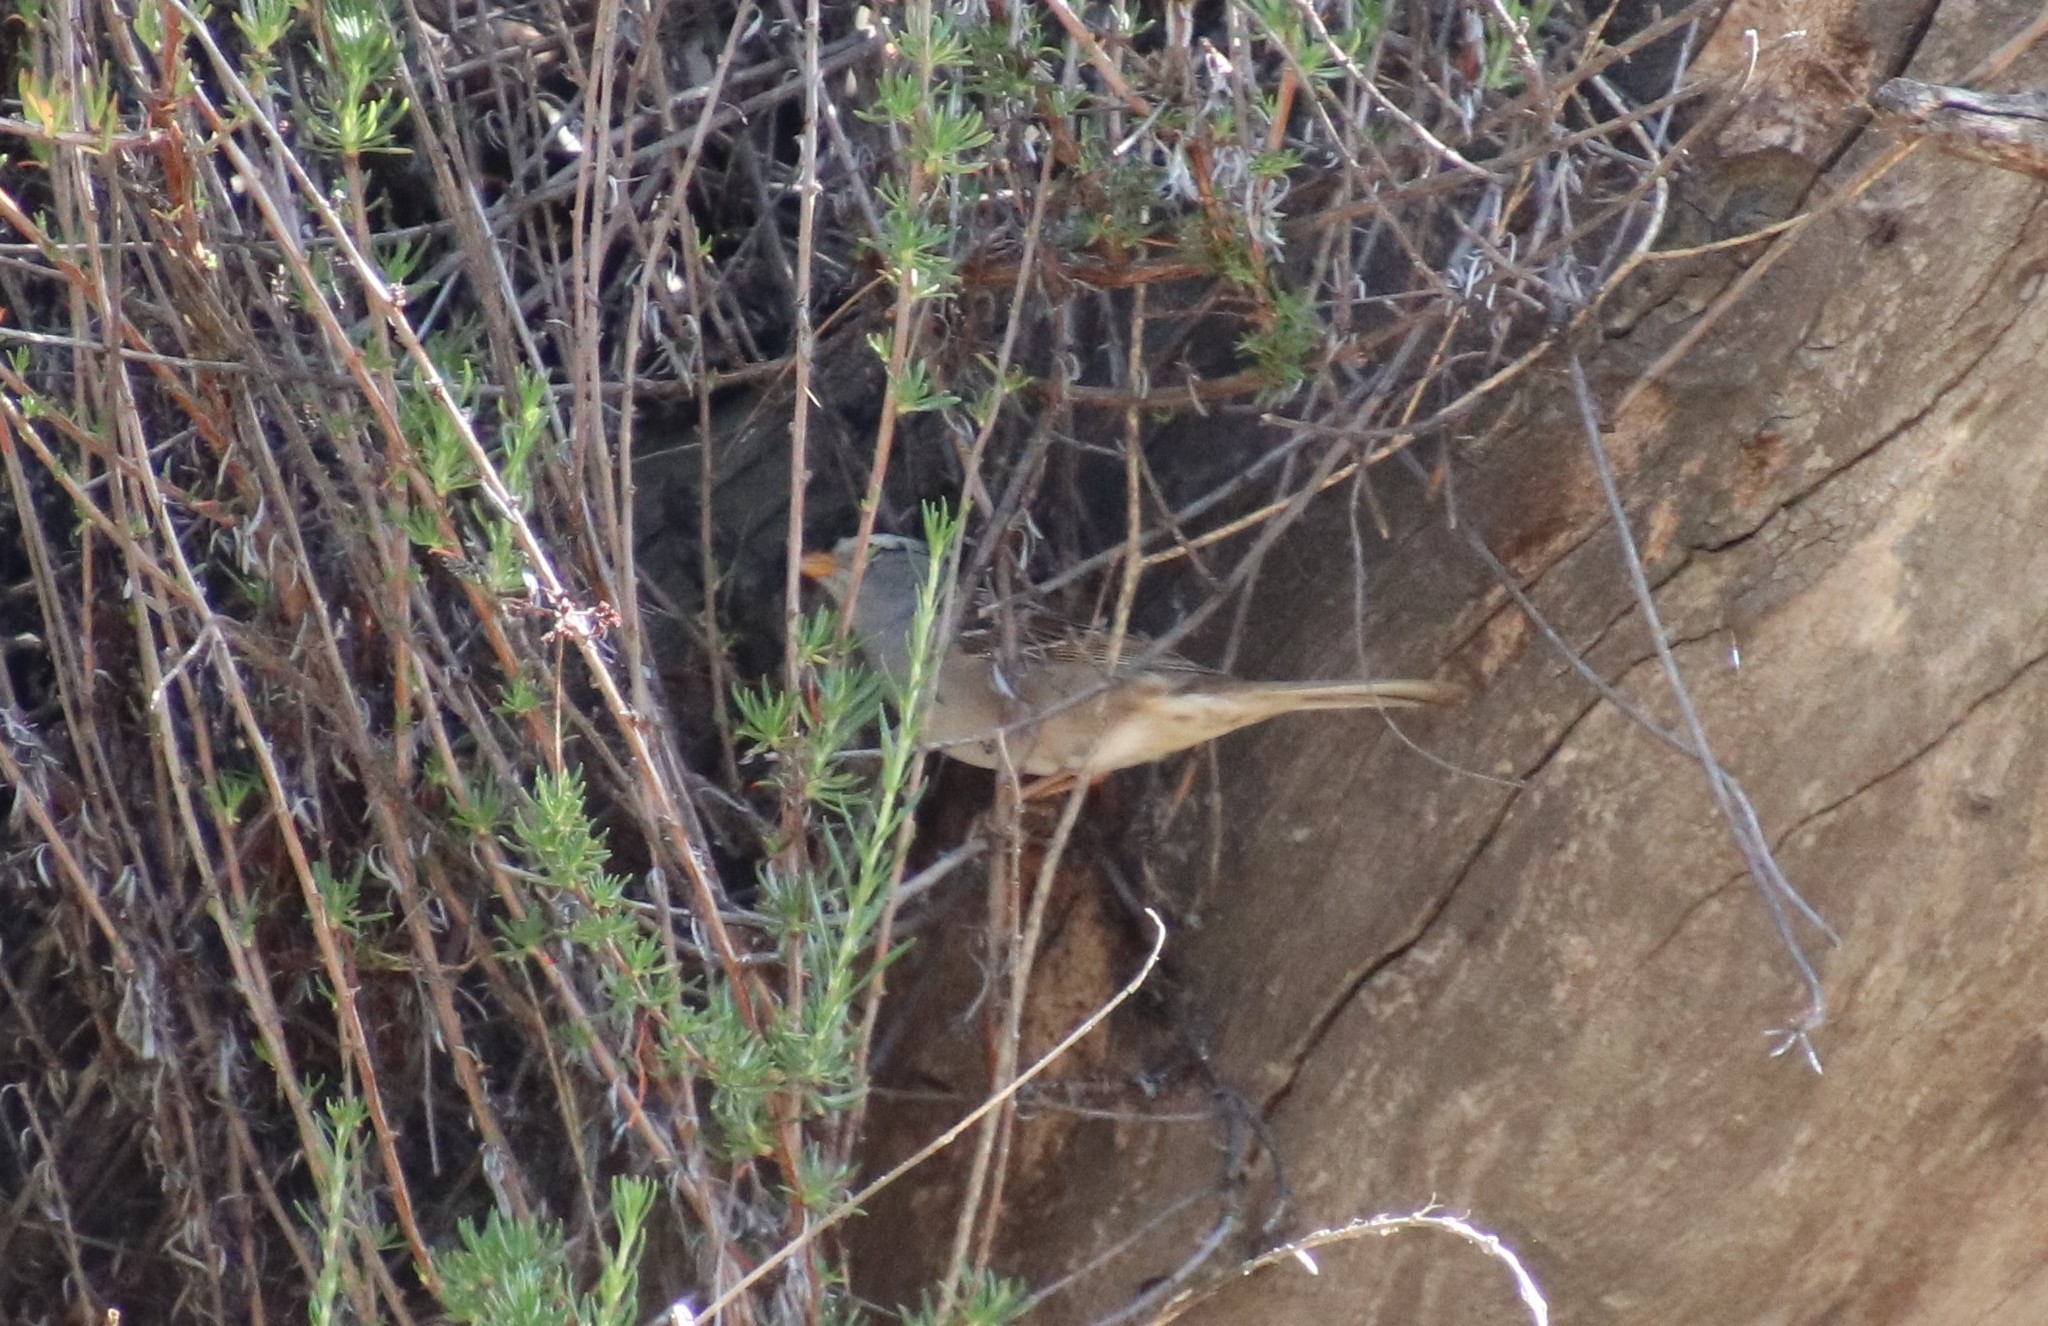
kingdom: Animalia
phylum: Chordata
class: Aves
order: Passeriformes
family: Passerellidae
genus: Zonotrichia
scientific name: Zonotrichia leucophrys
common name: White-crowned sparrow
